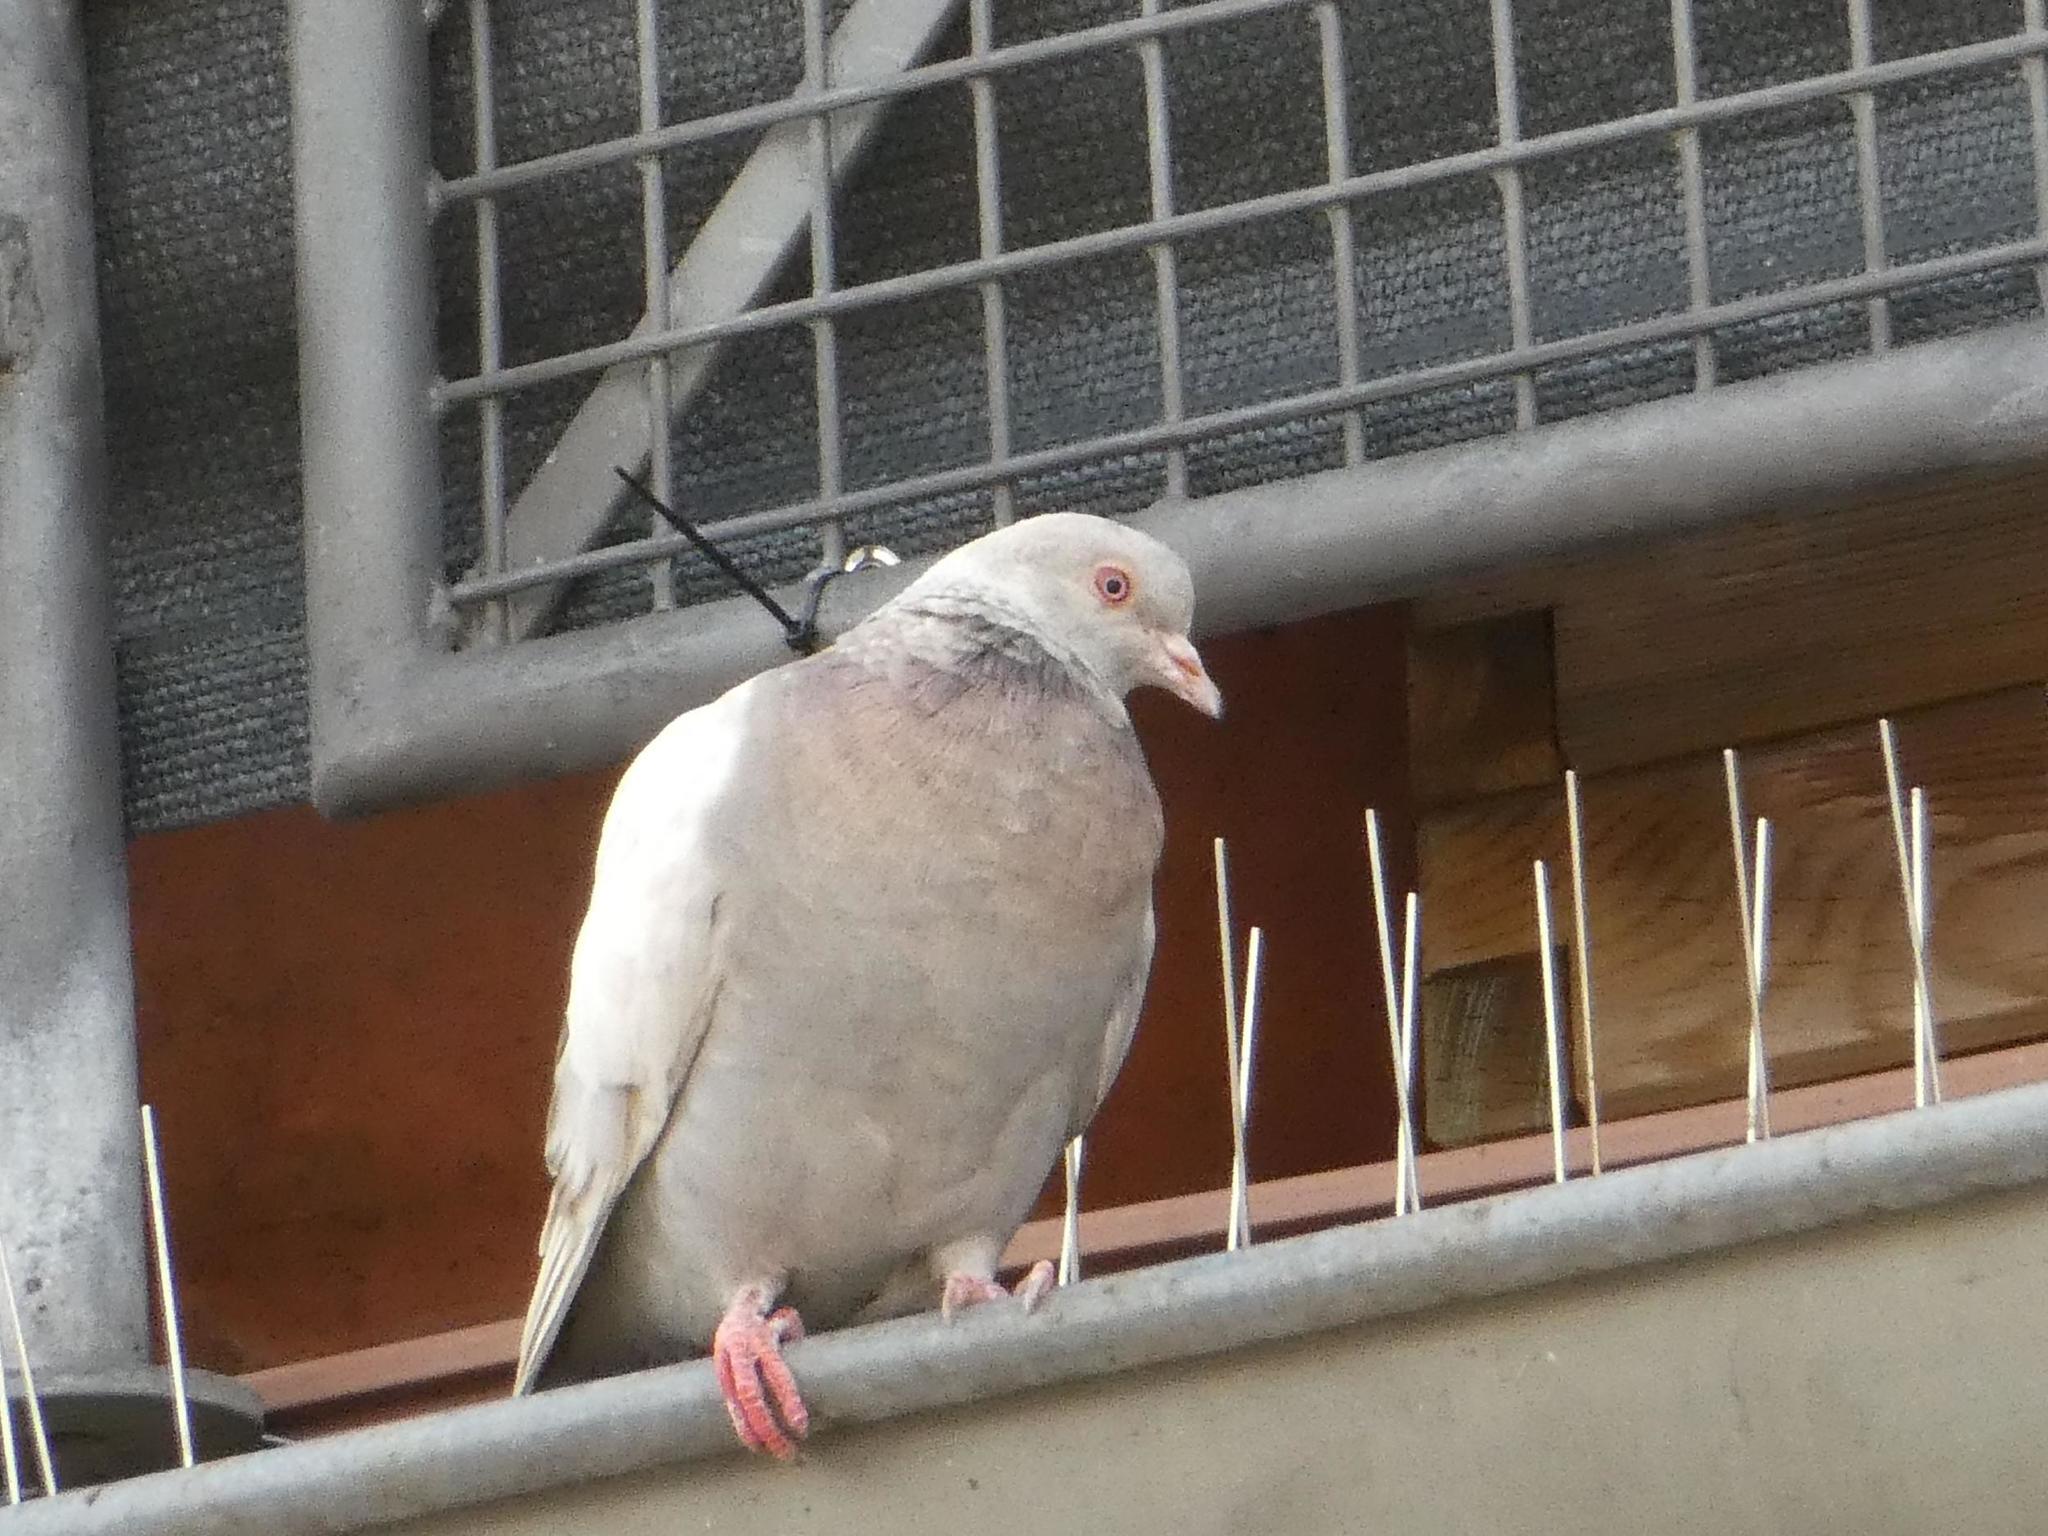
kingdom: Animalia
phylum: Chordata
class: Aves
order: Columbiformes
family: Columbidae
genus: Columba
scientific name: Columba livia
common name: Rock pigeon
